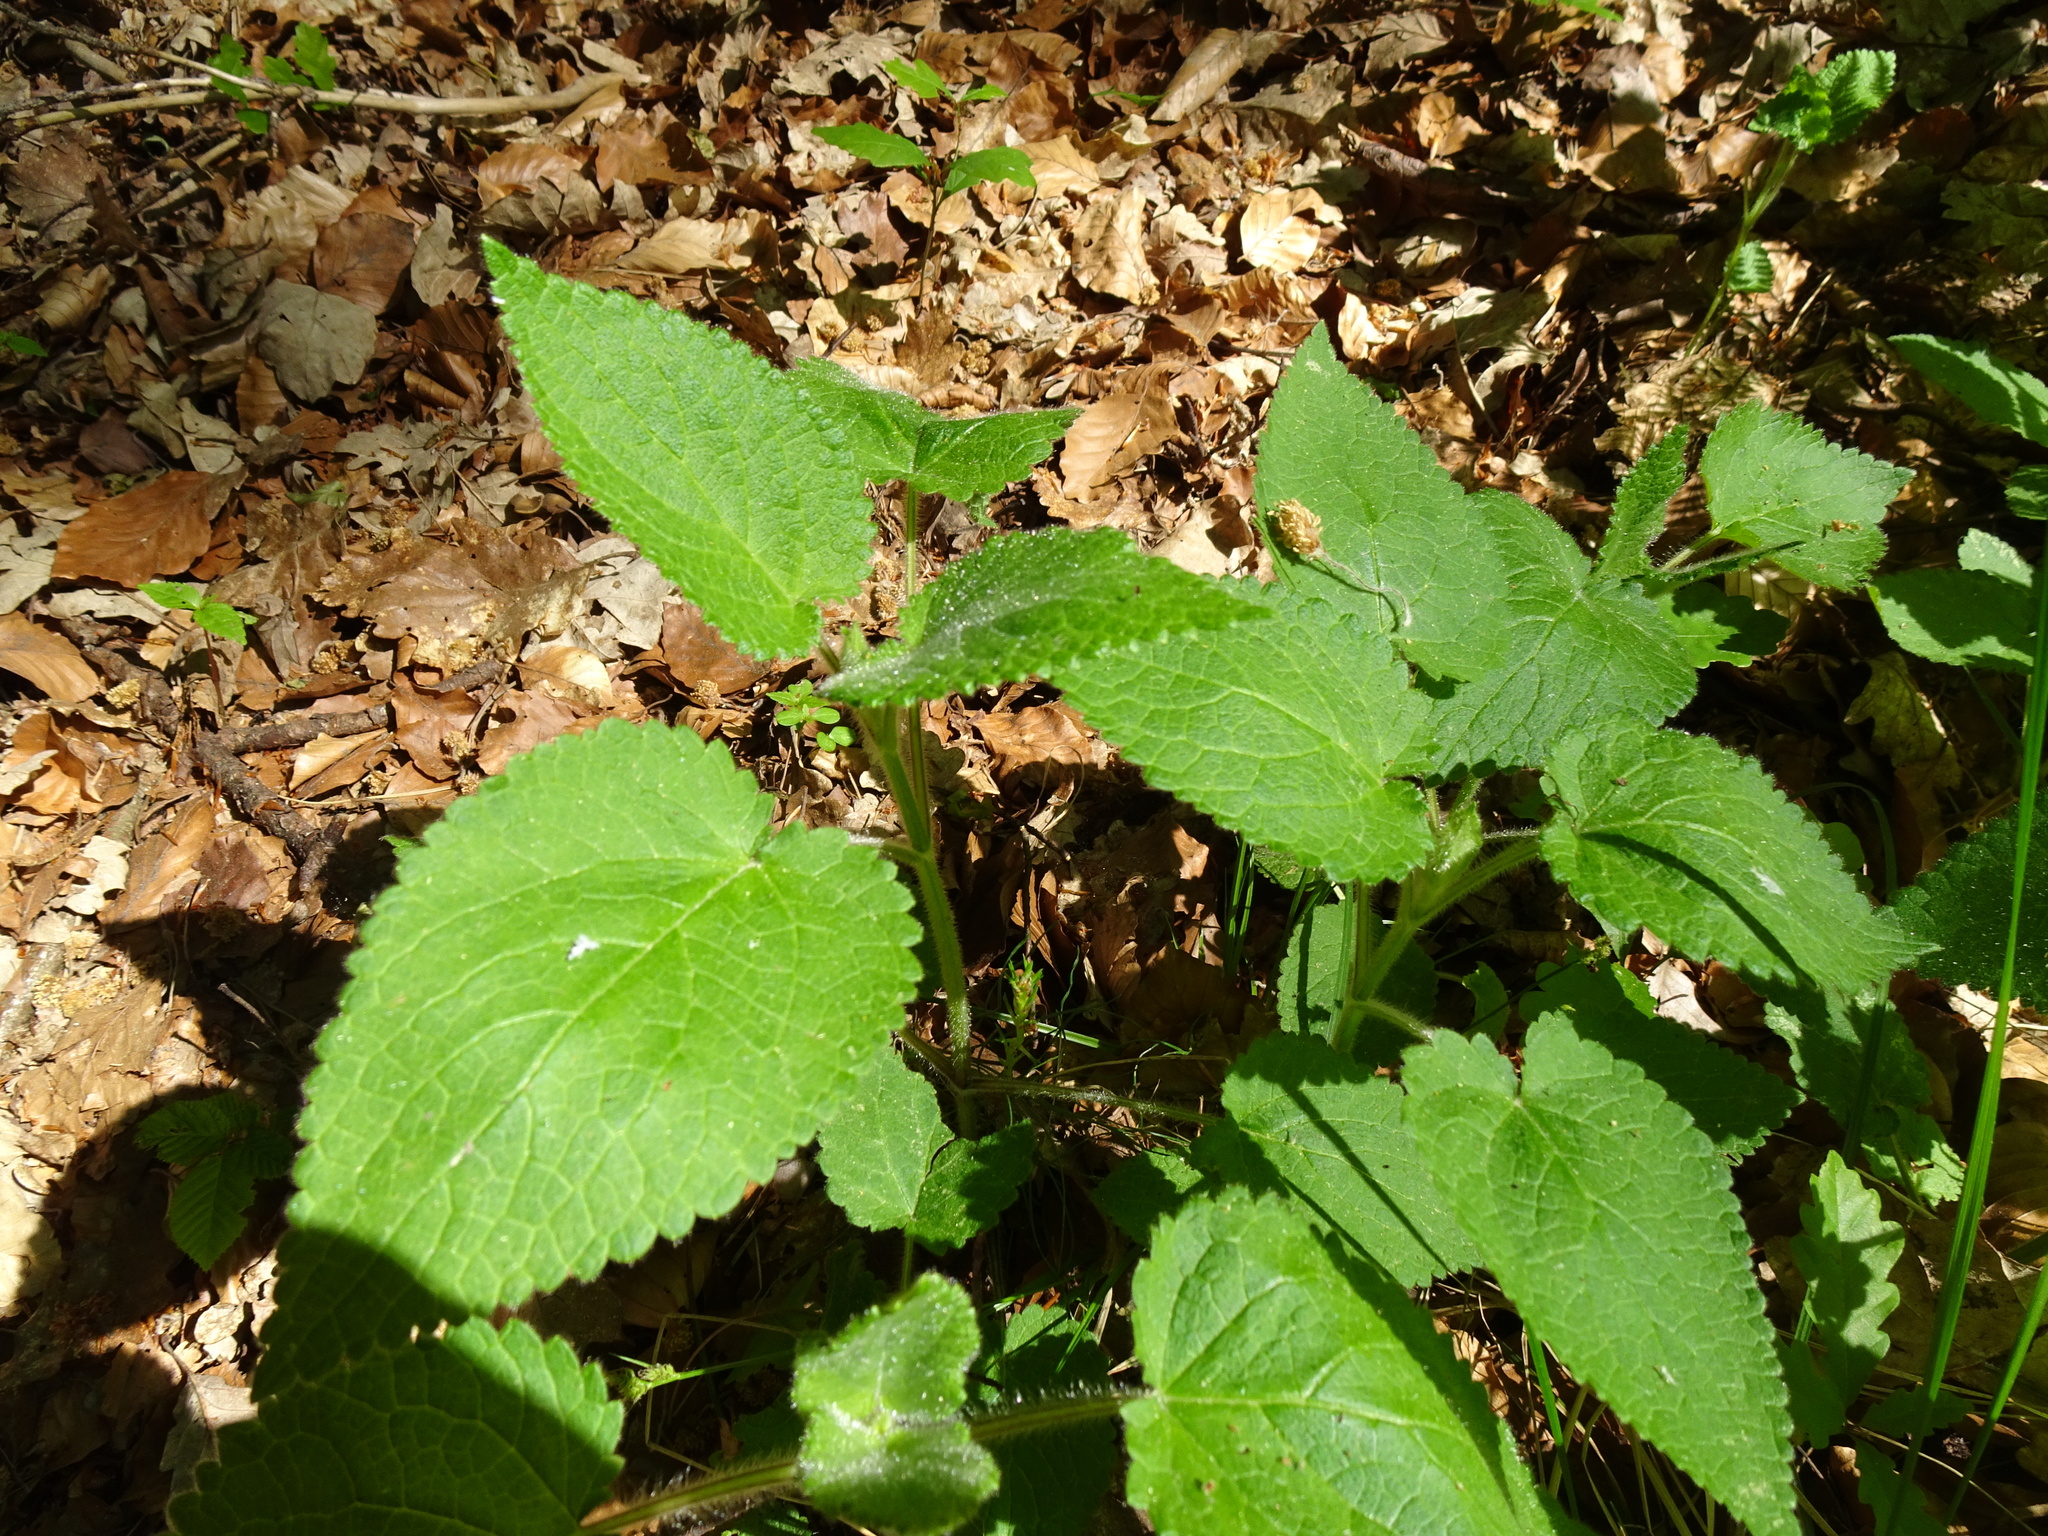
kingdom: Plantae
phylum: Tracheophyta
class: Magnoliopsida
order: Lamiales
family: Lamiaceae
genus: Stachys
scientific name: Stachys sylvatica
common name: Hedge woundwort
